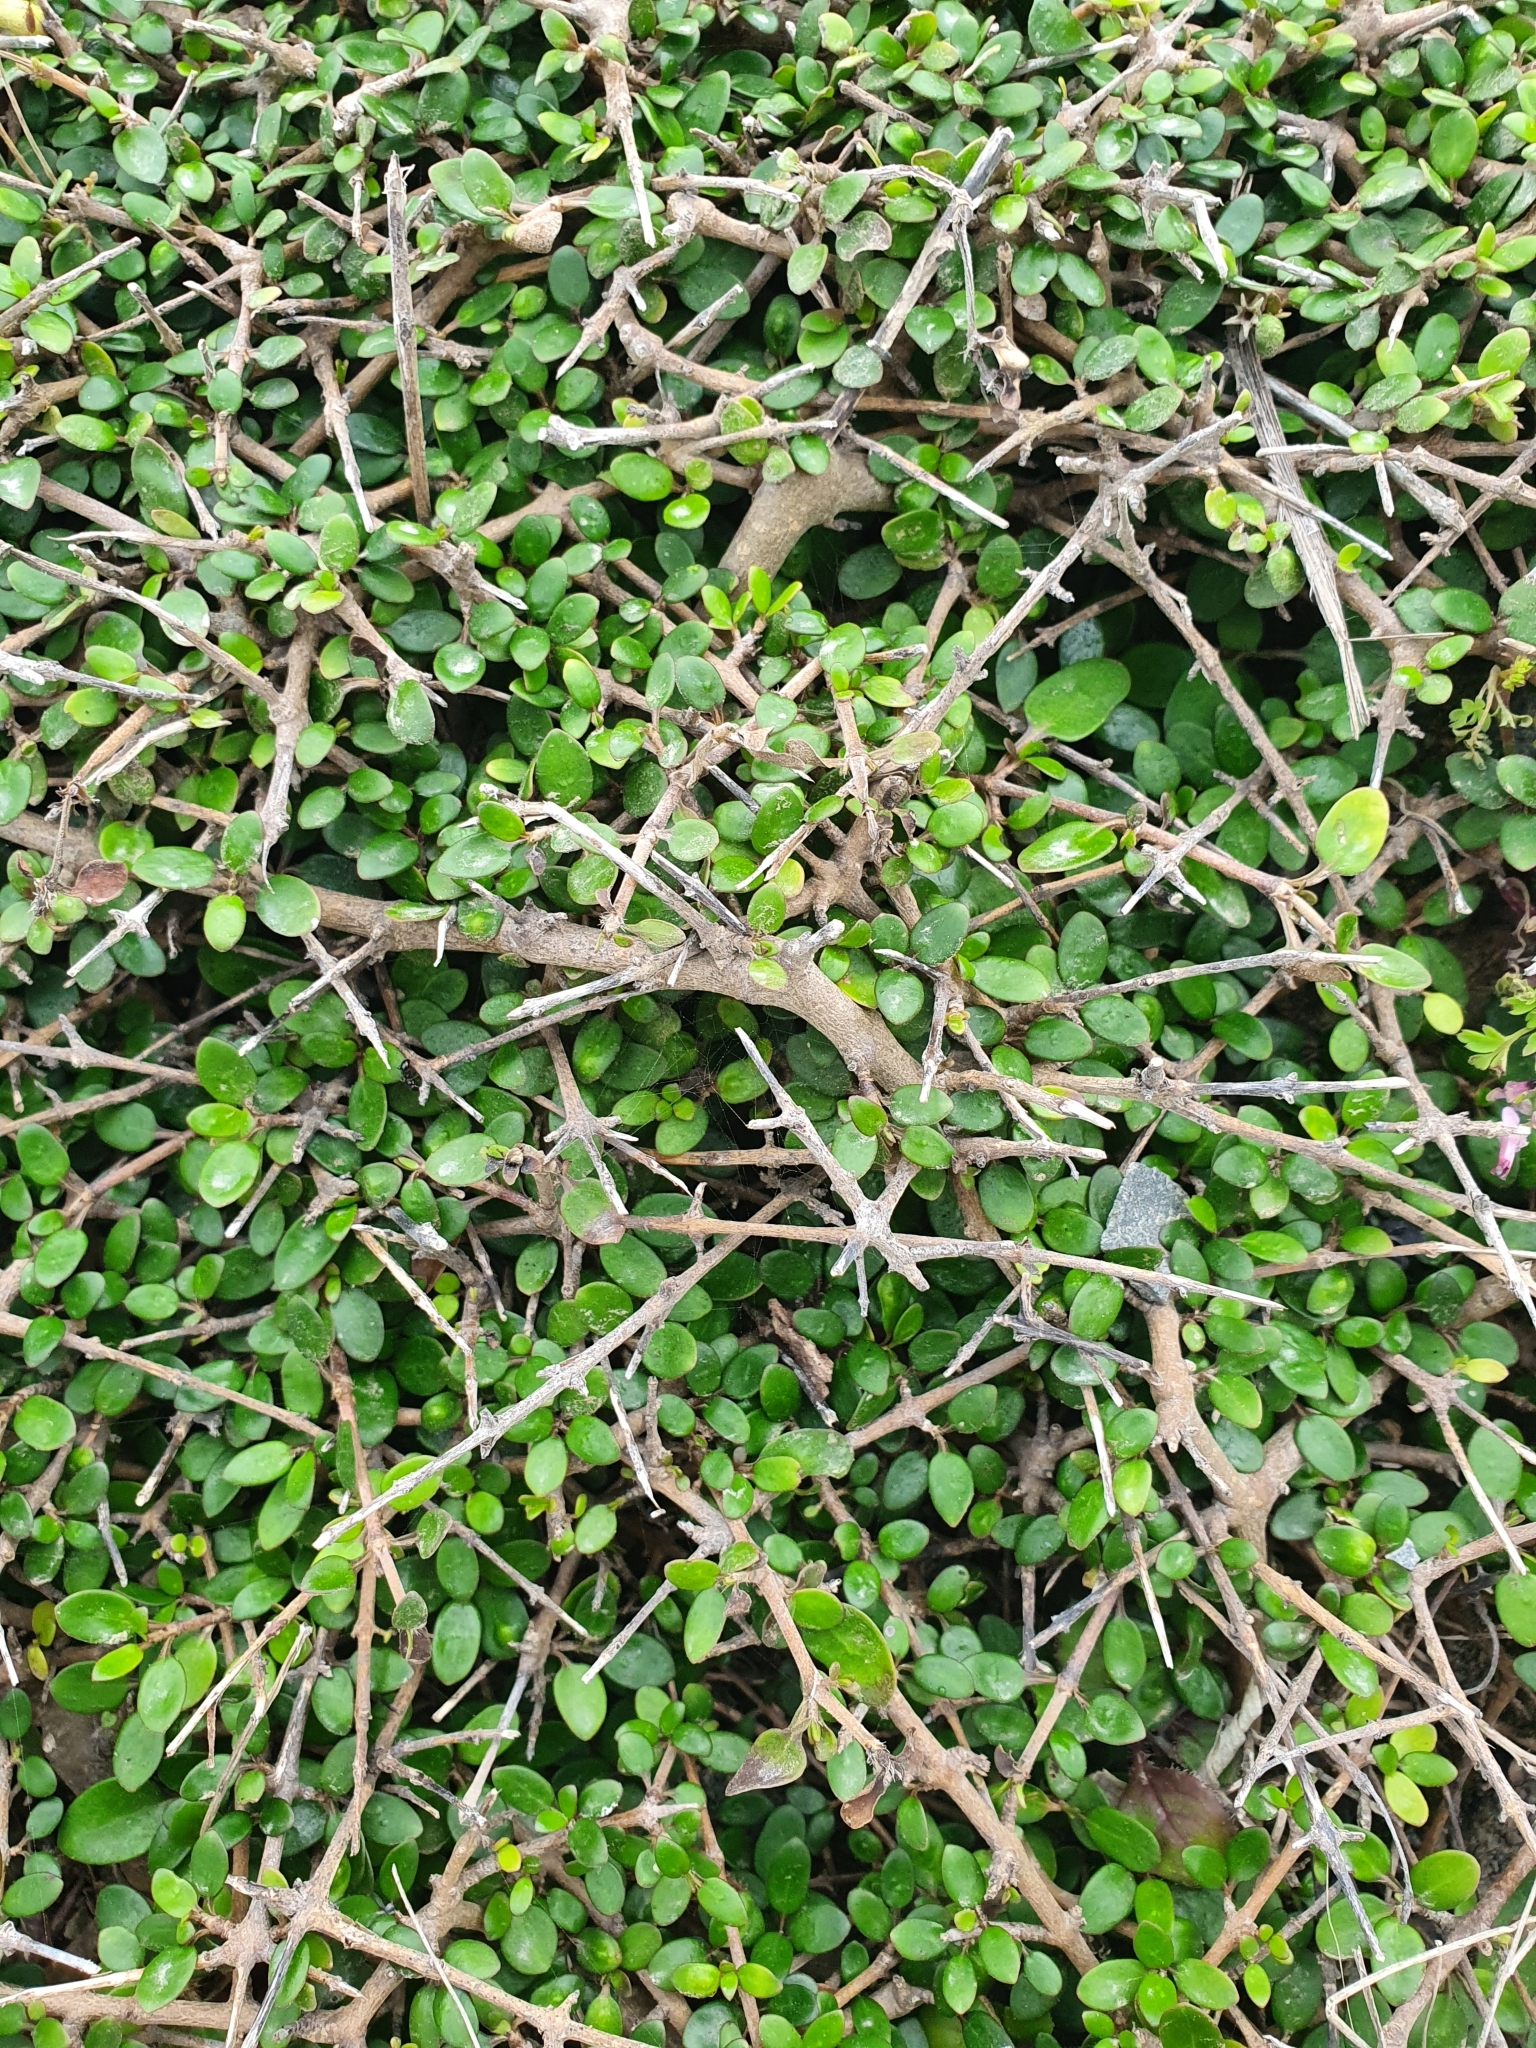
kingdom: Plantae
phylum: Tracheophyta
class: Magnoliopsida
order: Gentianales
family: Rubiaceae
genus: Coprosma
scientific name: Coprosma propinqua
